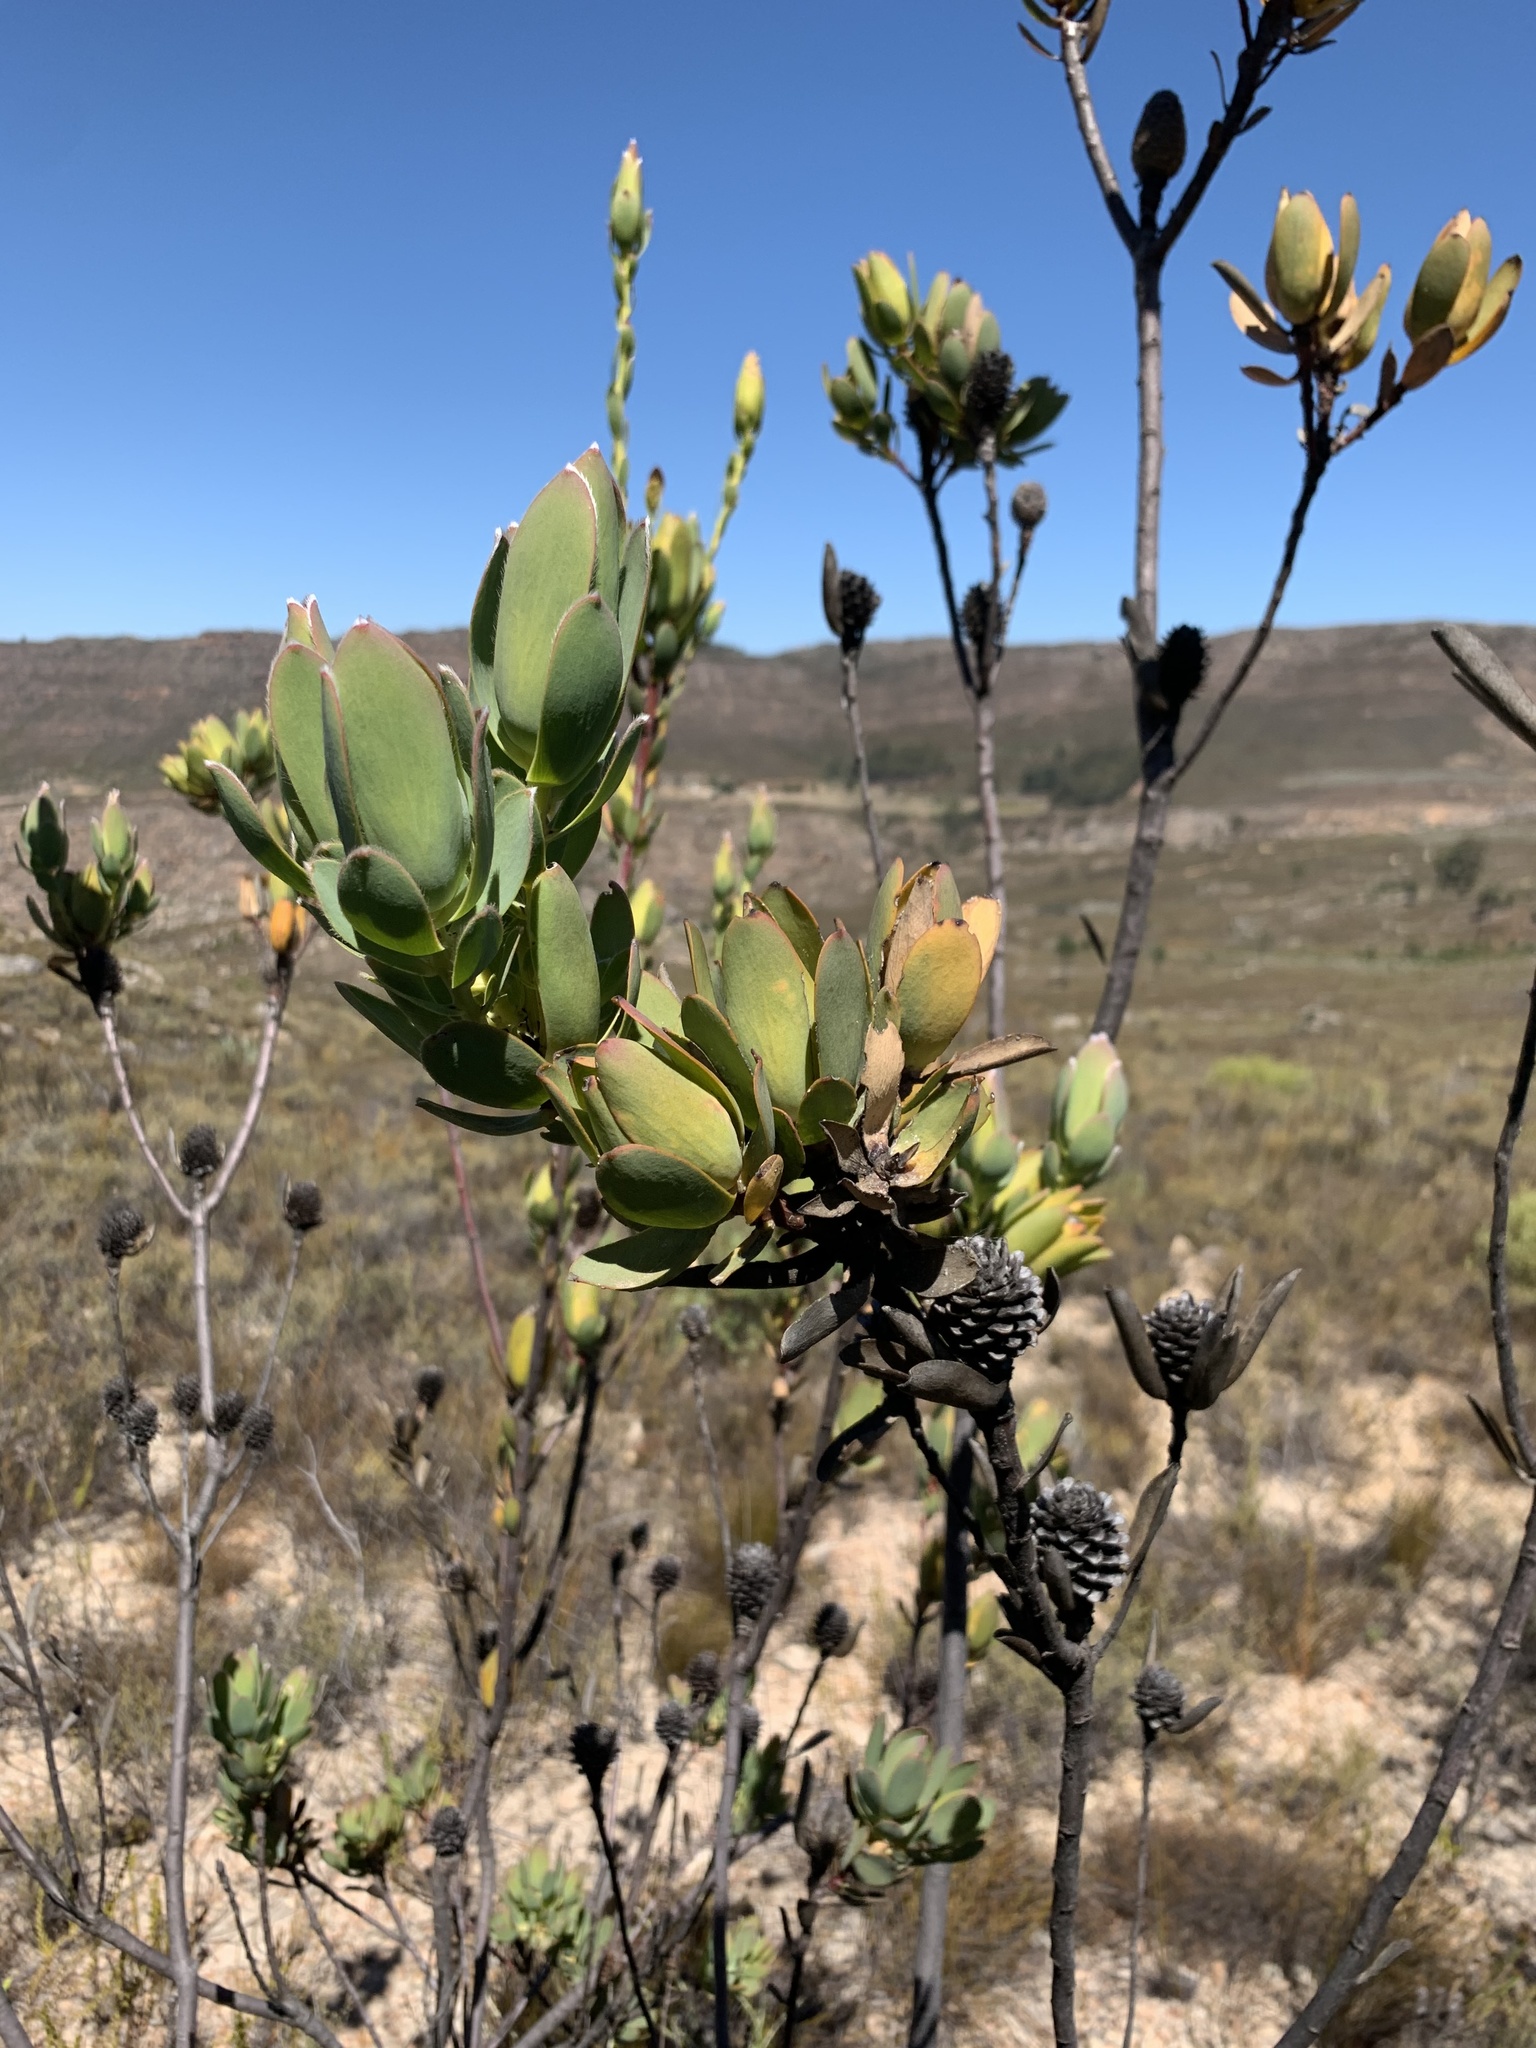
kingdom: Plantae
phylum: Tracheophyta
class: Magnoliopsida
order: Proteales
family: Proteaceae
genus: Leucadendron
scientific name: Leucadendron discolor
